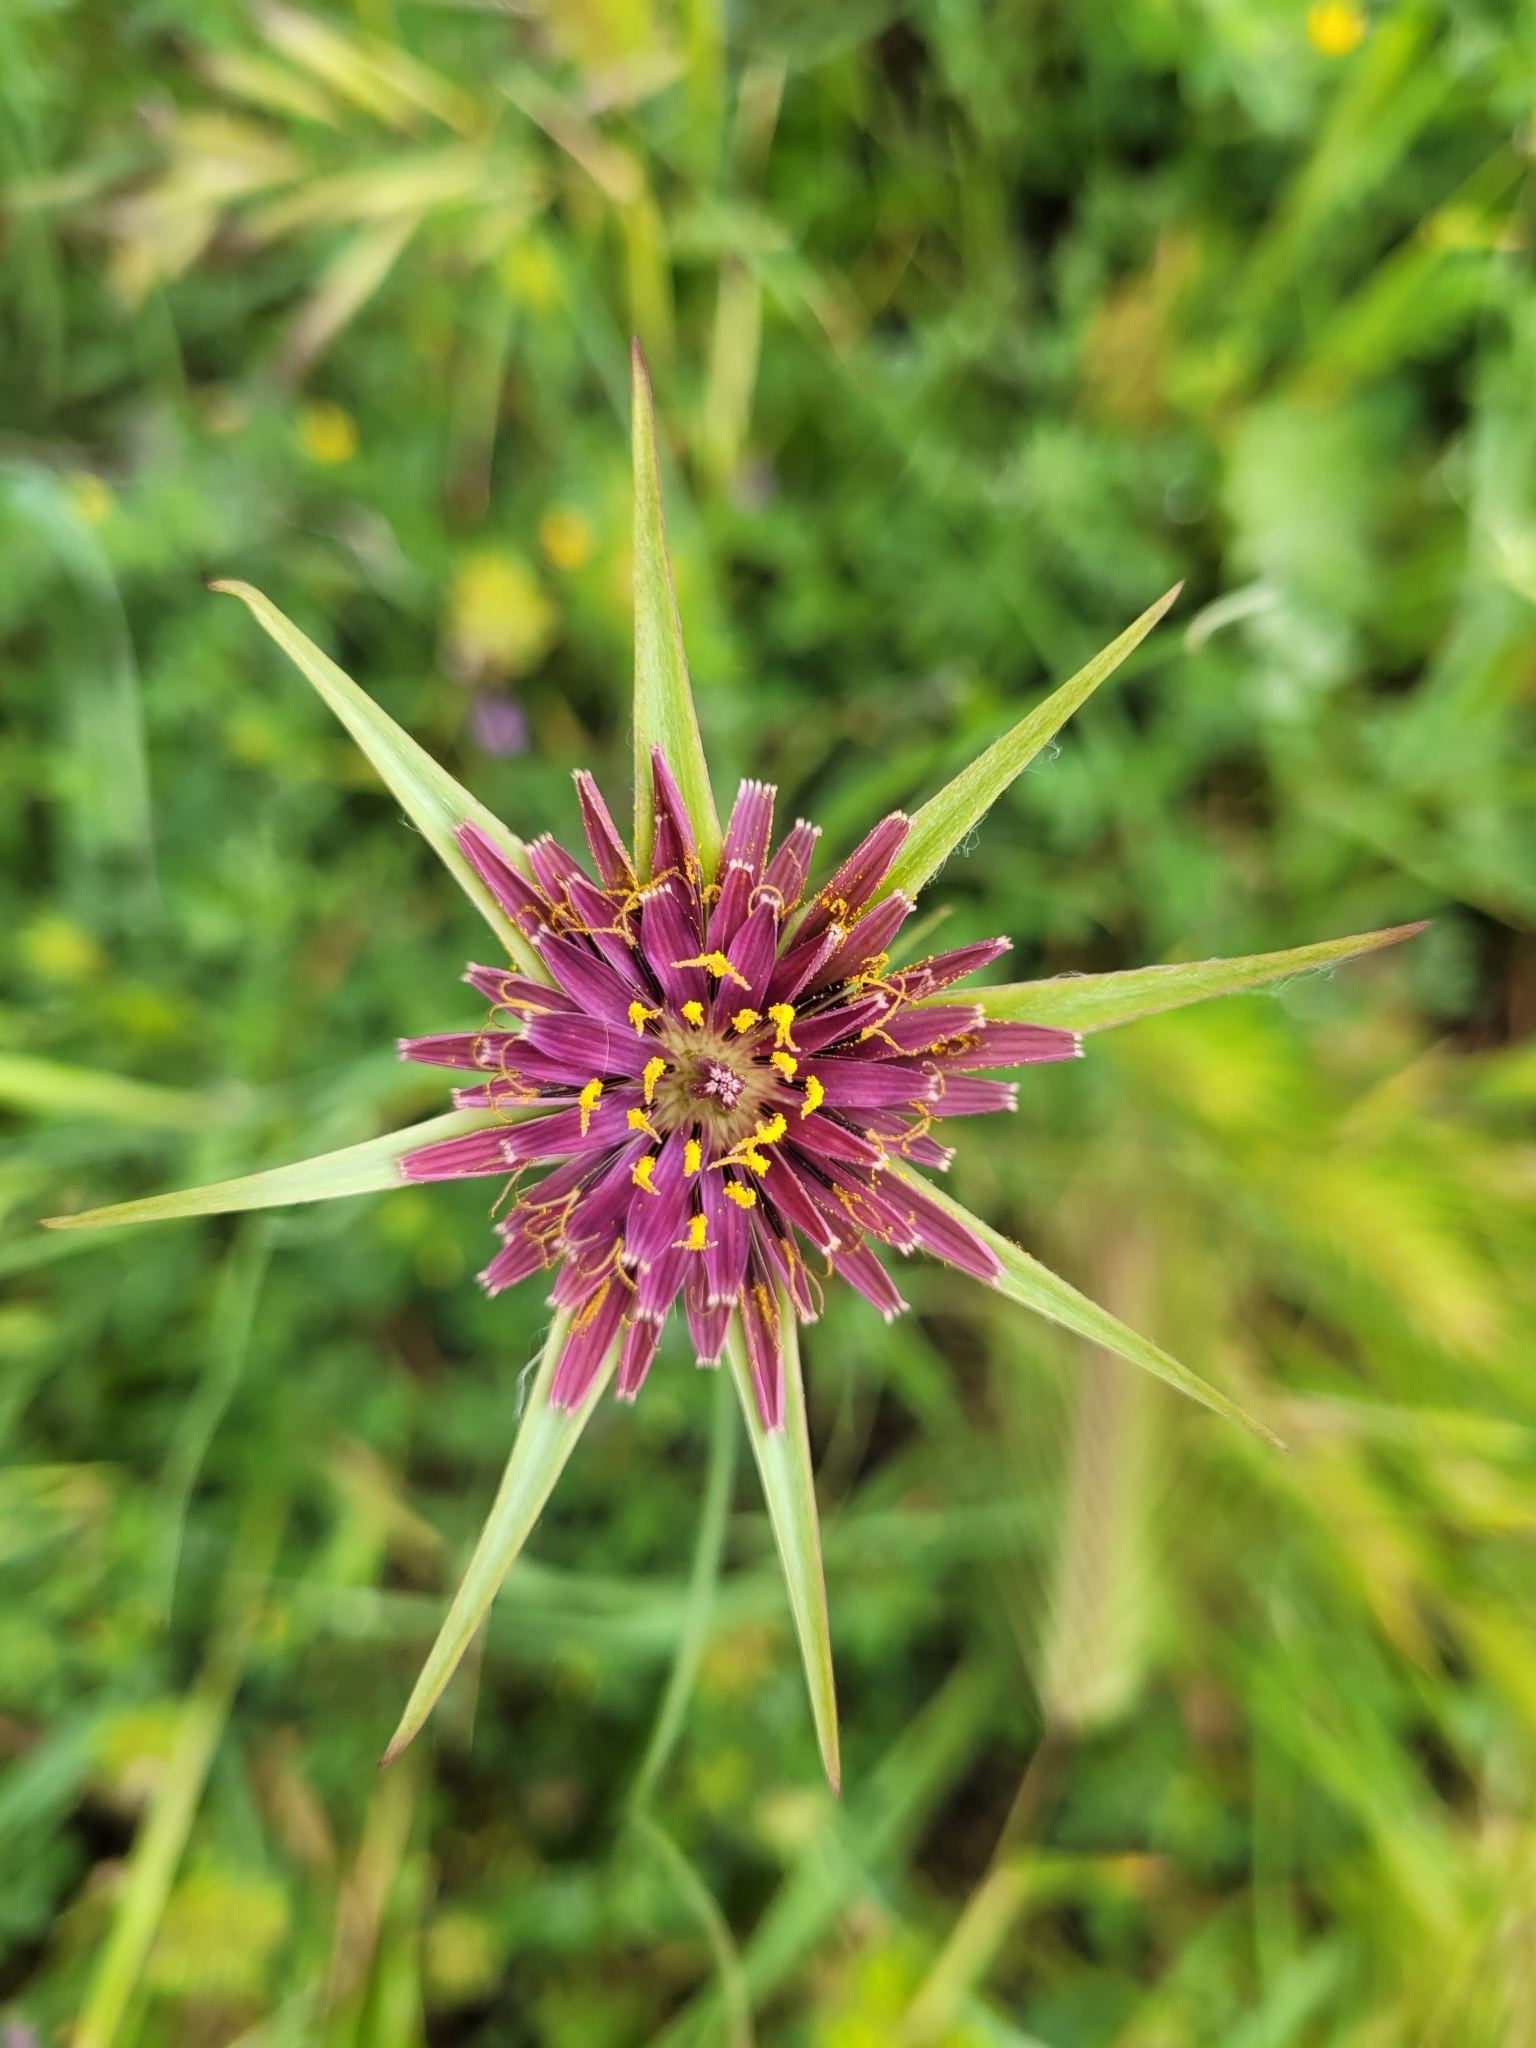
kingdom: Plantae
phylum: Tracheophyta
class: Magnoliopsida
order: Asterales
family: Asteraceae
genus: Tragopogon
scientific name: Tragopogon porrifolius
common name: Salsify
